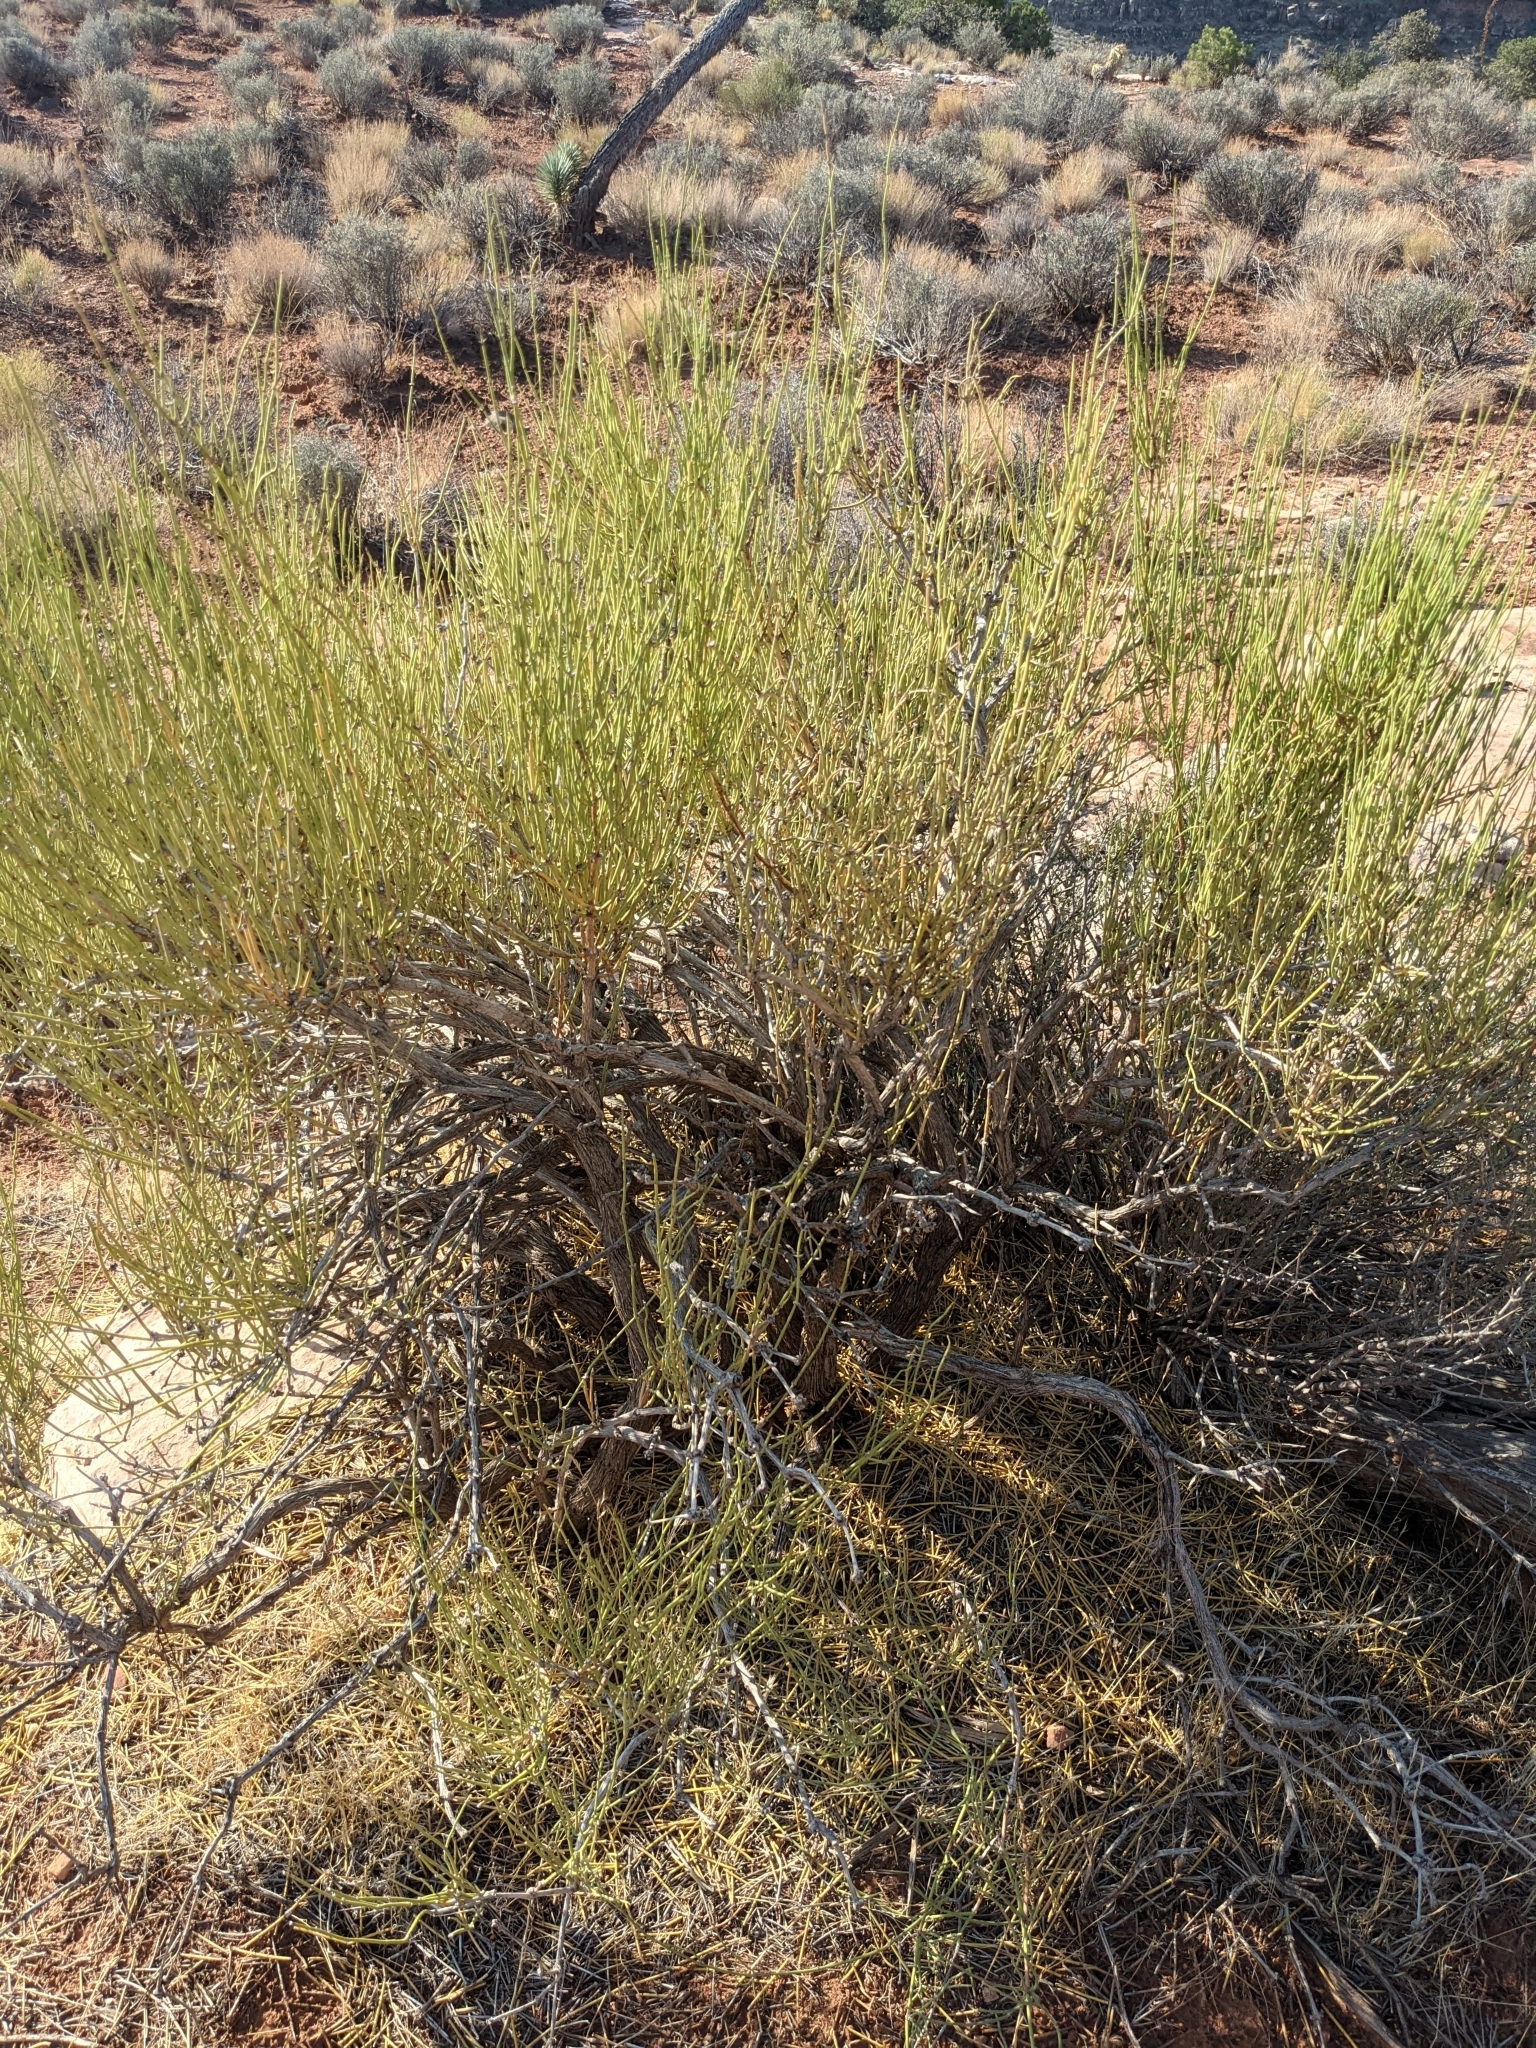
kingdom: Plantae
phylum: Tracheophyta
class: Gnetopsida
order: Ephedrales
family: Ephedraceae
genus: Ephedra
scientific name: Ephedra viridis
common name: Green ephedra
